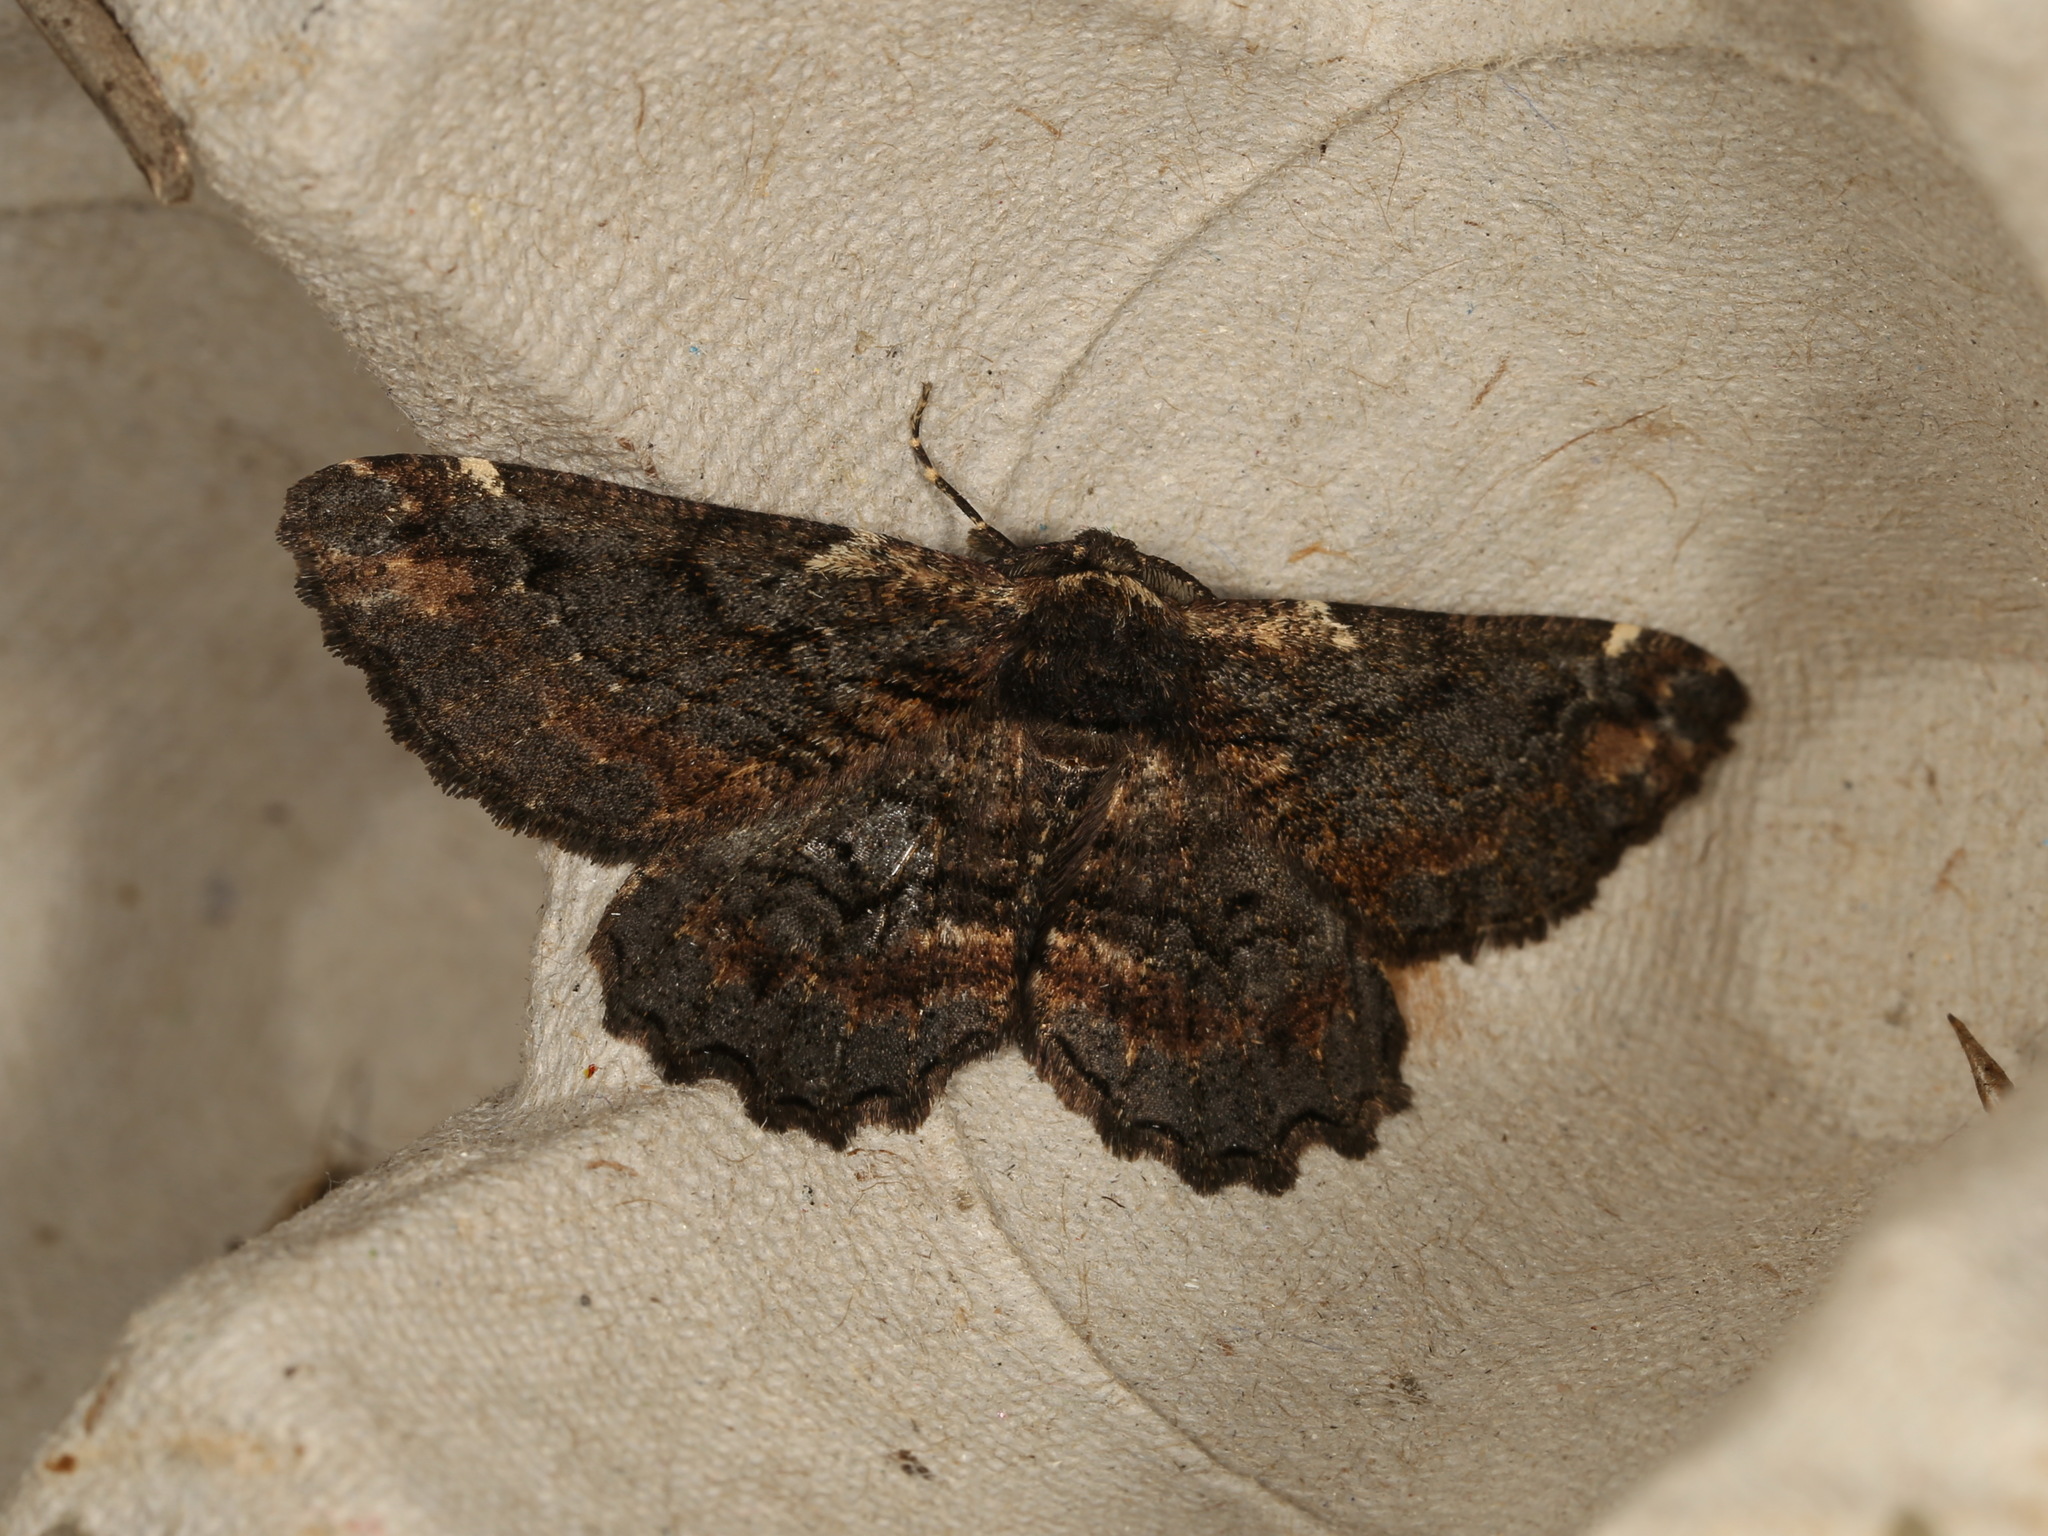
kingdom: Animalia
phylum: Arthropoda
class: Insecta
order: Lepidoptera
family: Geometridae
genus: Pholodes
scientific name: Pholodes sinistraria
